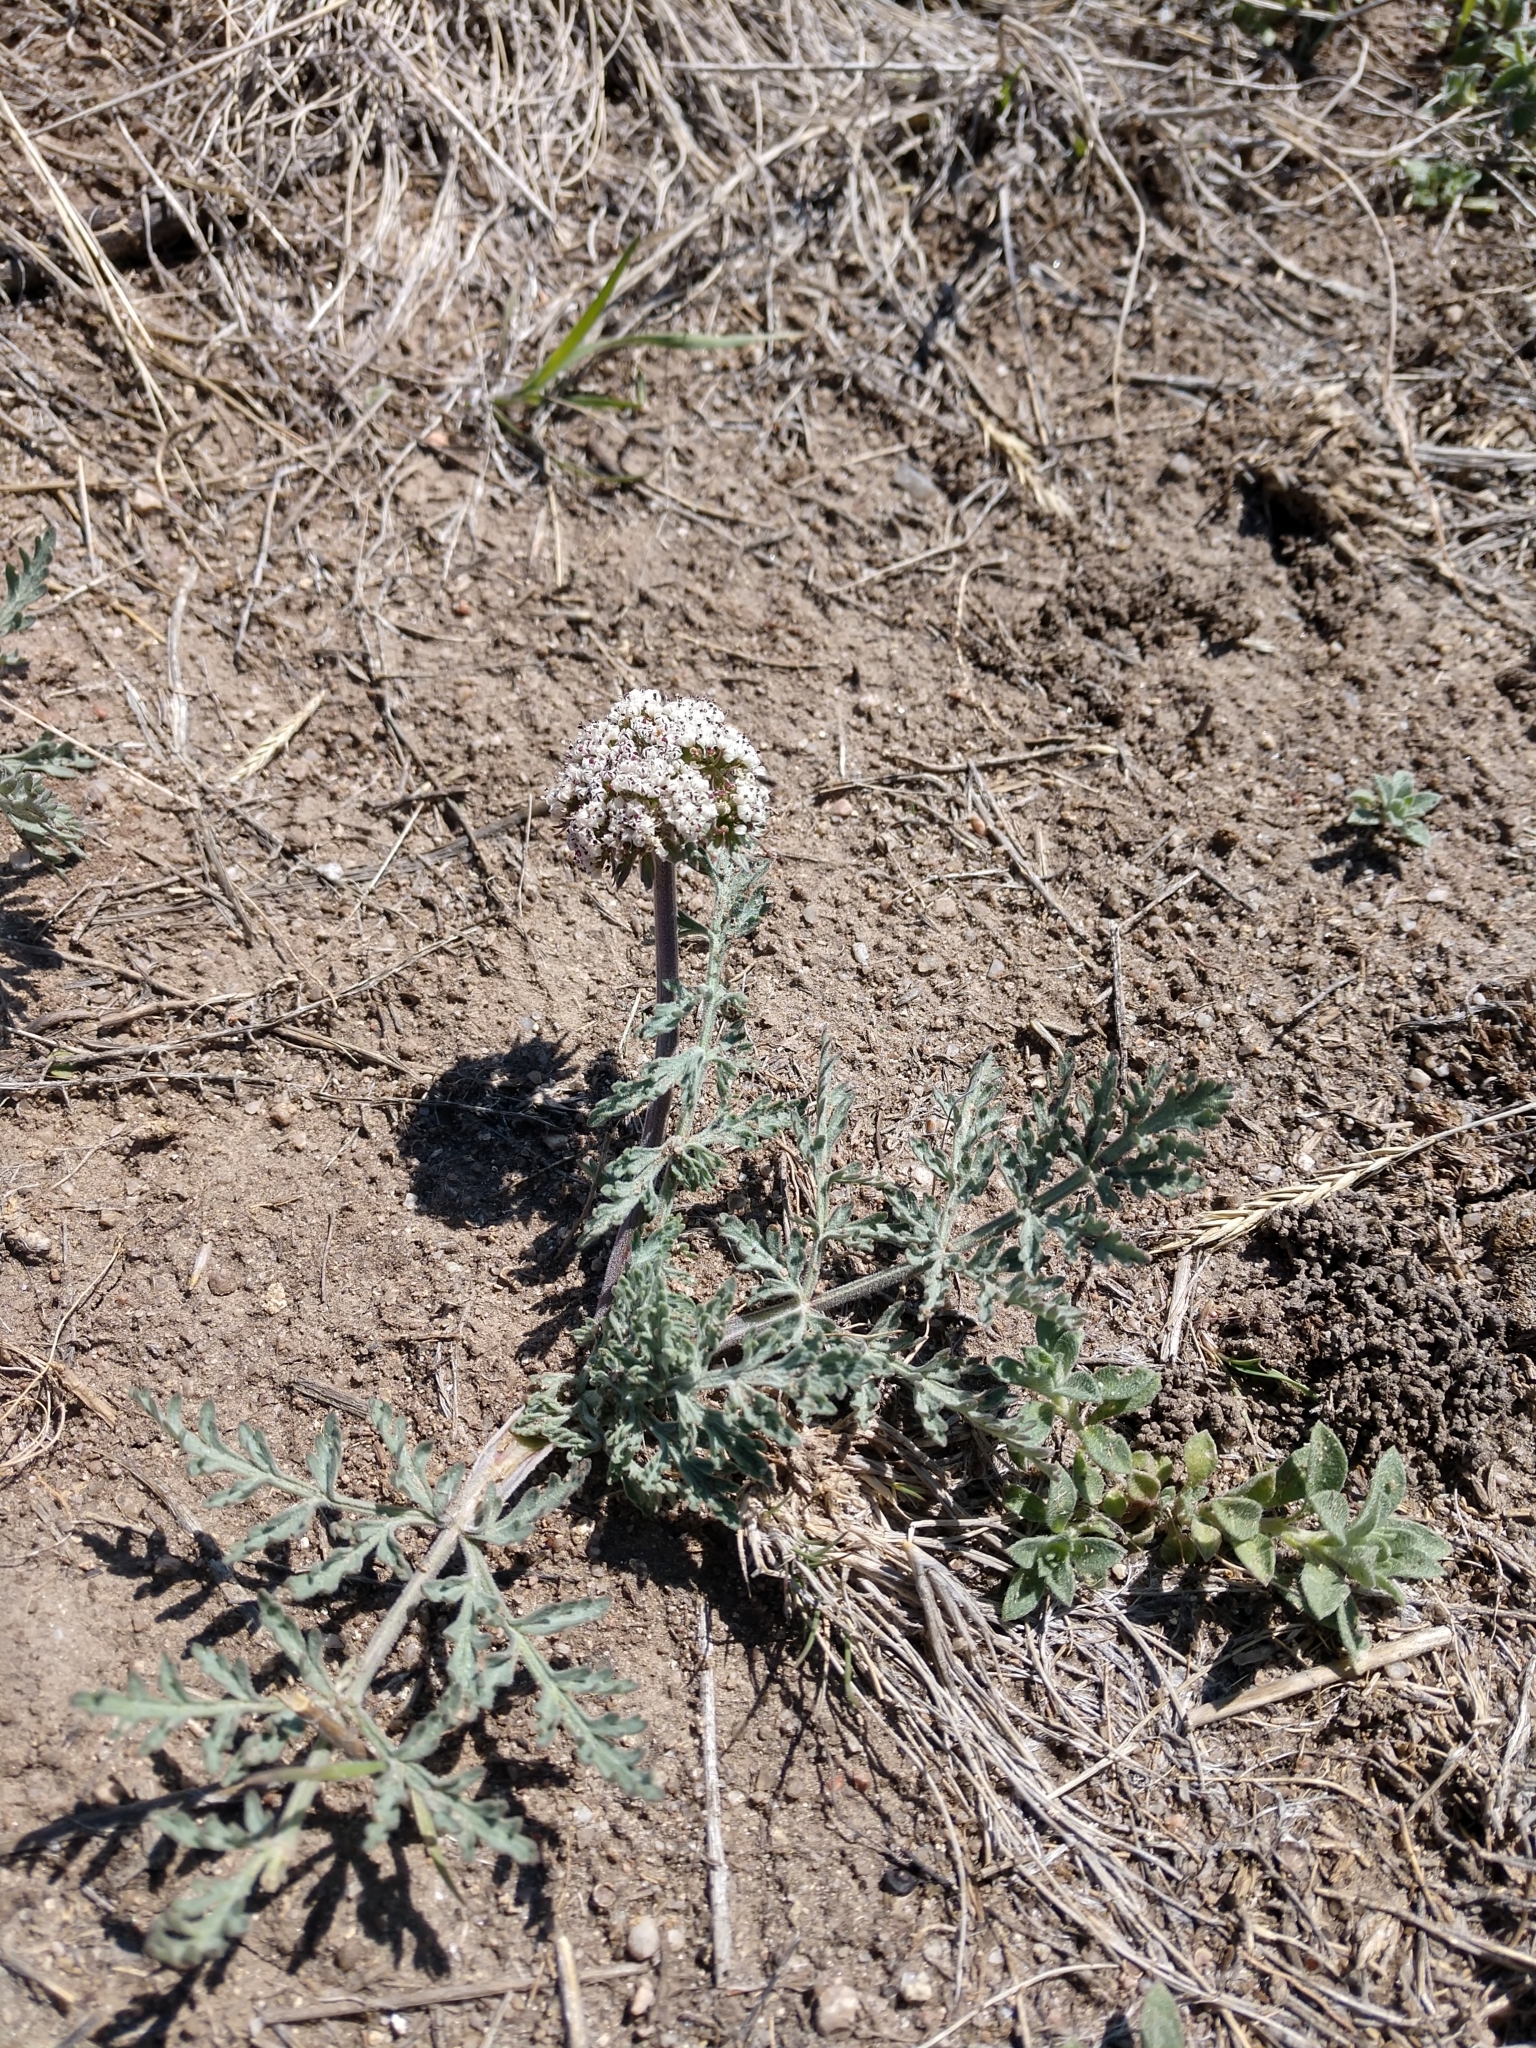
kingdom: Plantae
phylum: Tracheophyta
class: Magnoliopsida
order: Apiales
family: Apiaceae
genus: Lomatium
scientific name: Lomatium orientale
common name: Eastern cous
